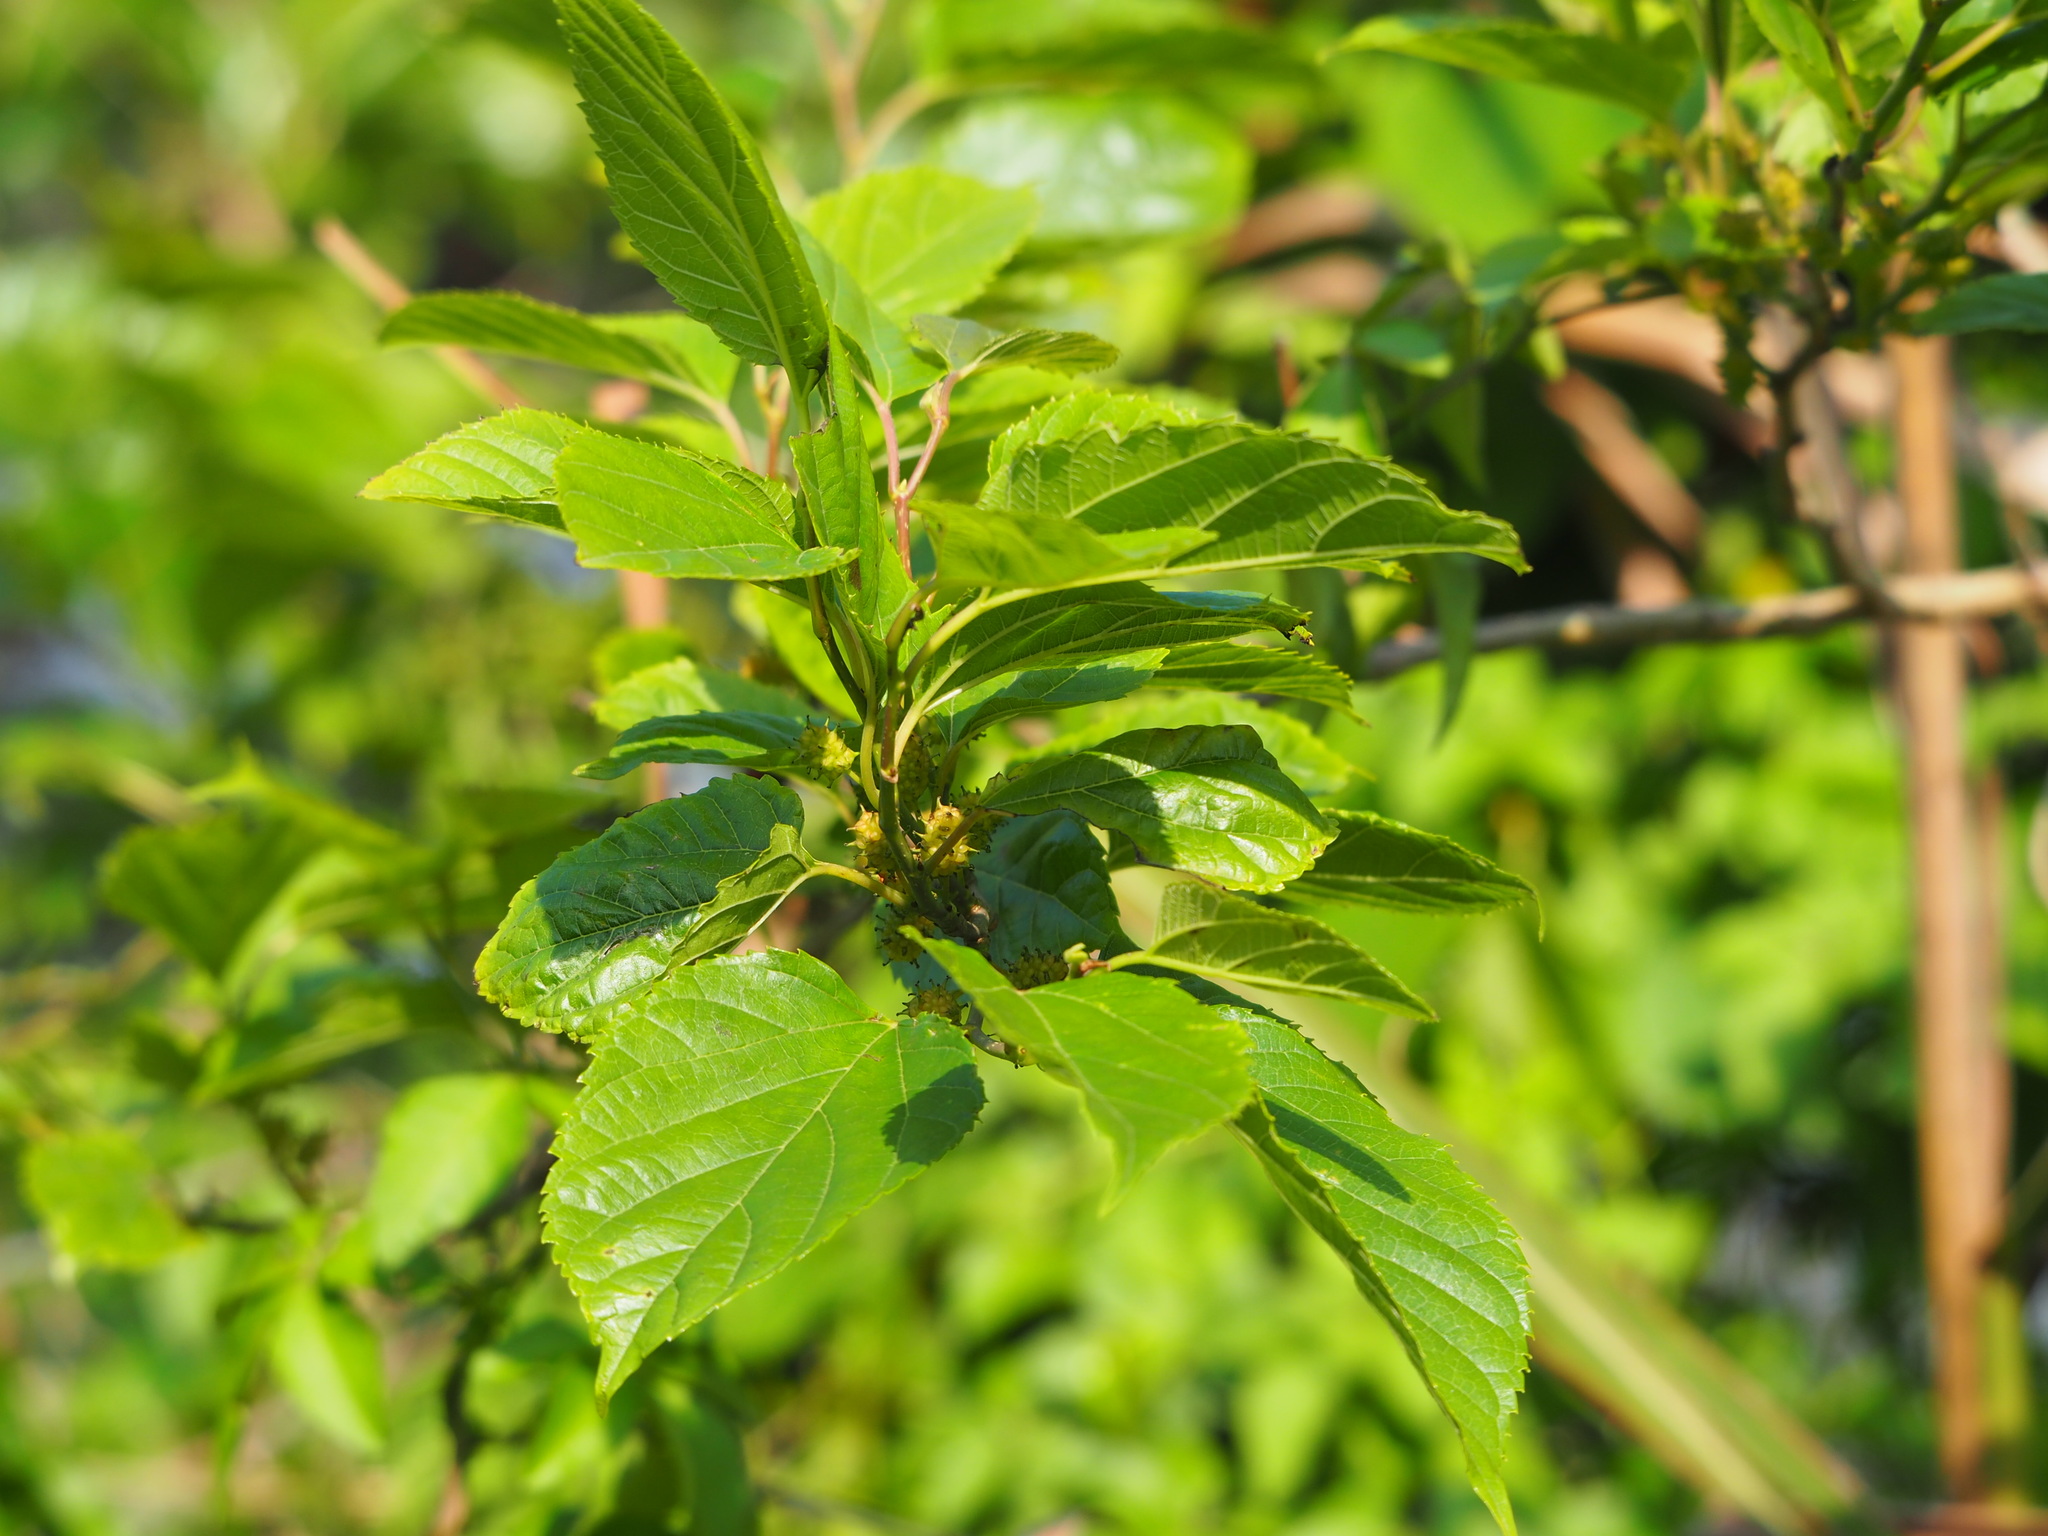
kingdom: Plantae
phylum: Tracheophyta
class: Magnoliopsida
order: Rosales
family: Moraceae
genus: Morus
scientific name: Morus indica
